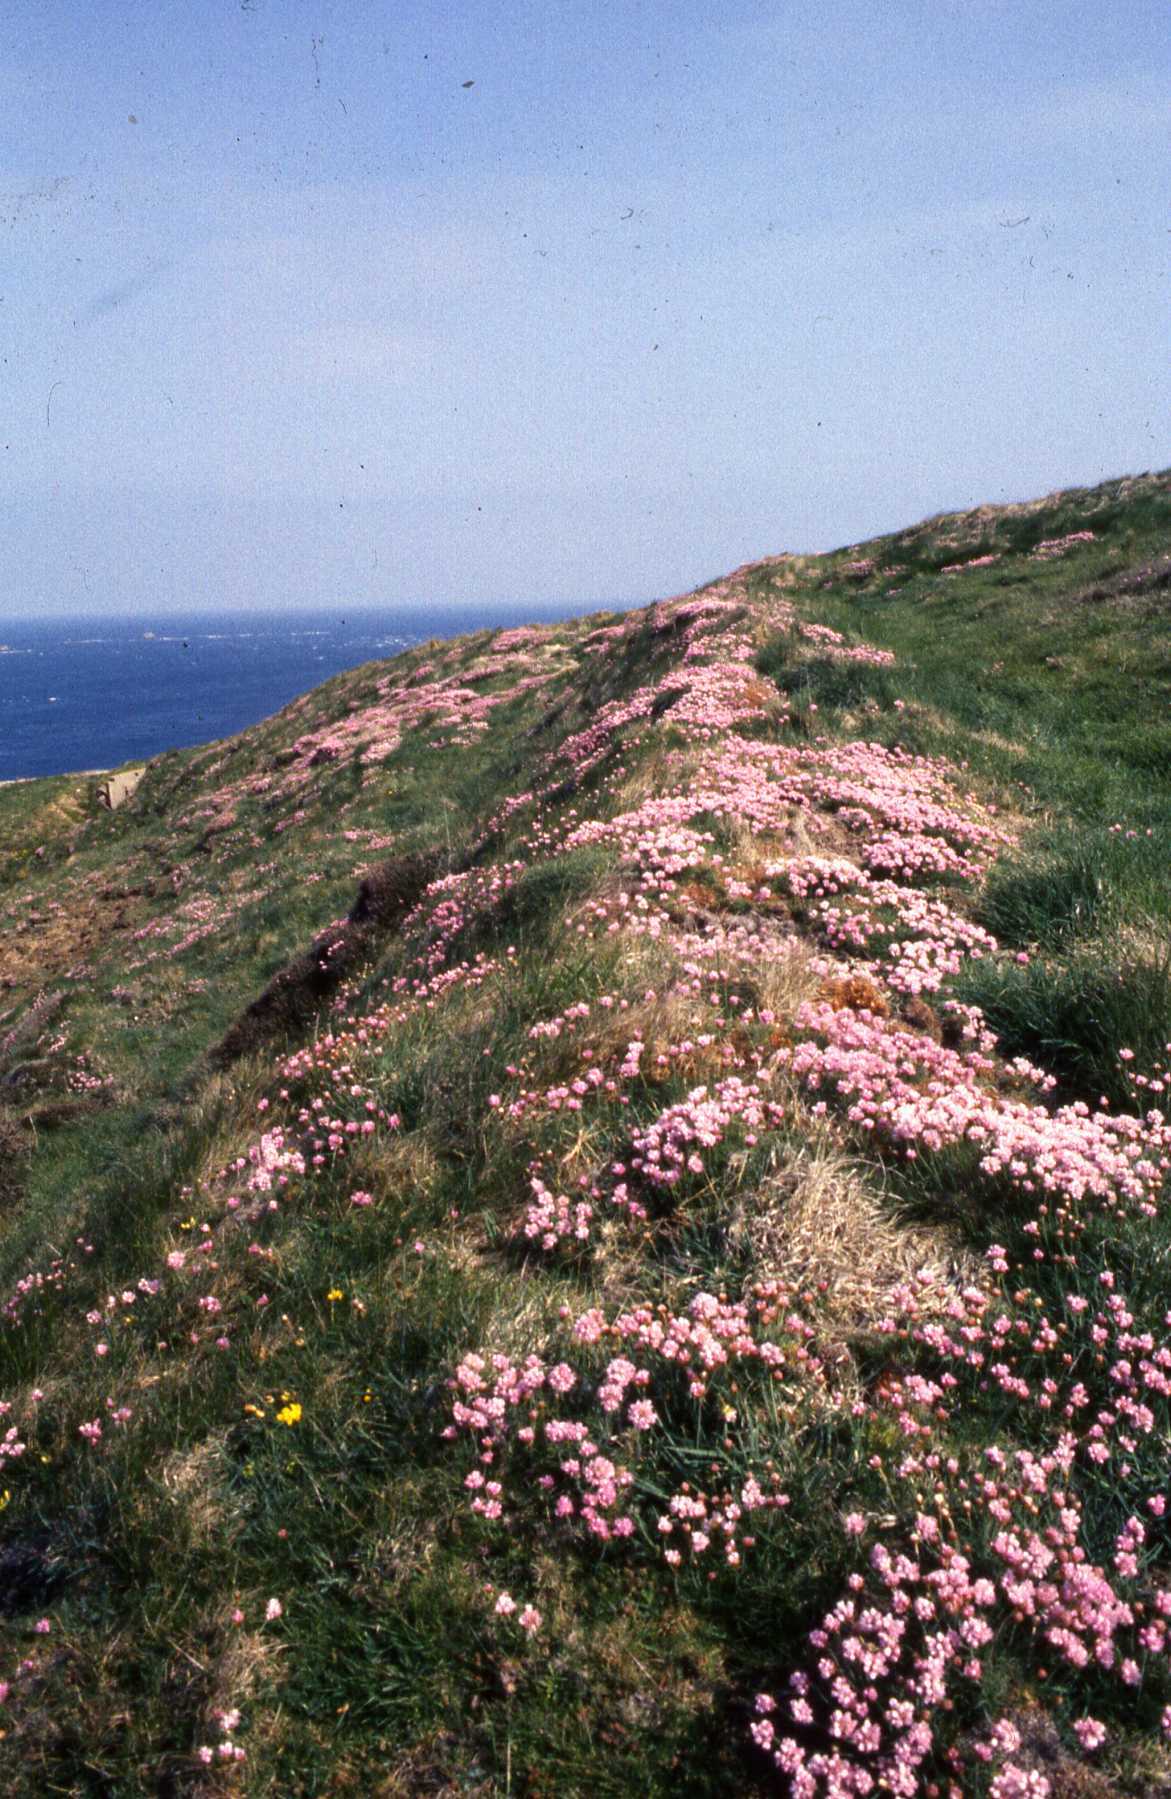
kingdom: Plantae
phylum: Tracheophyta
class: Magnoliopsida
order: Caryophyllales
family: Plumbaginaceae
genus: Armeria
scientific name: Armeria maritima
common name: Thrift
